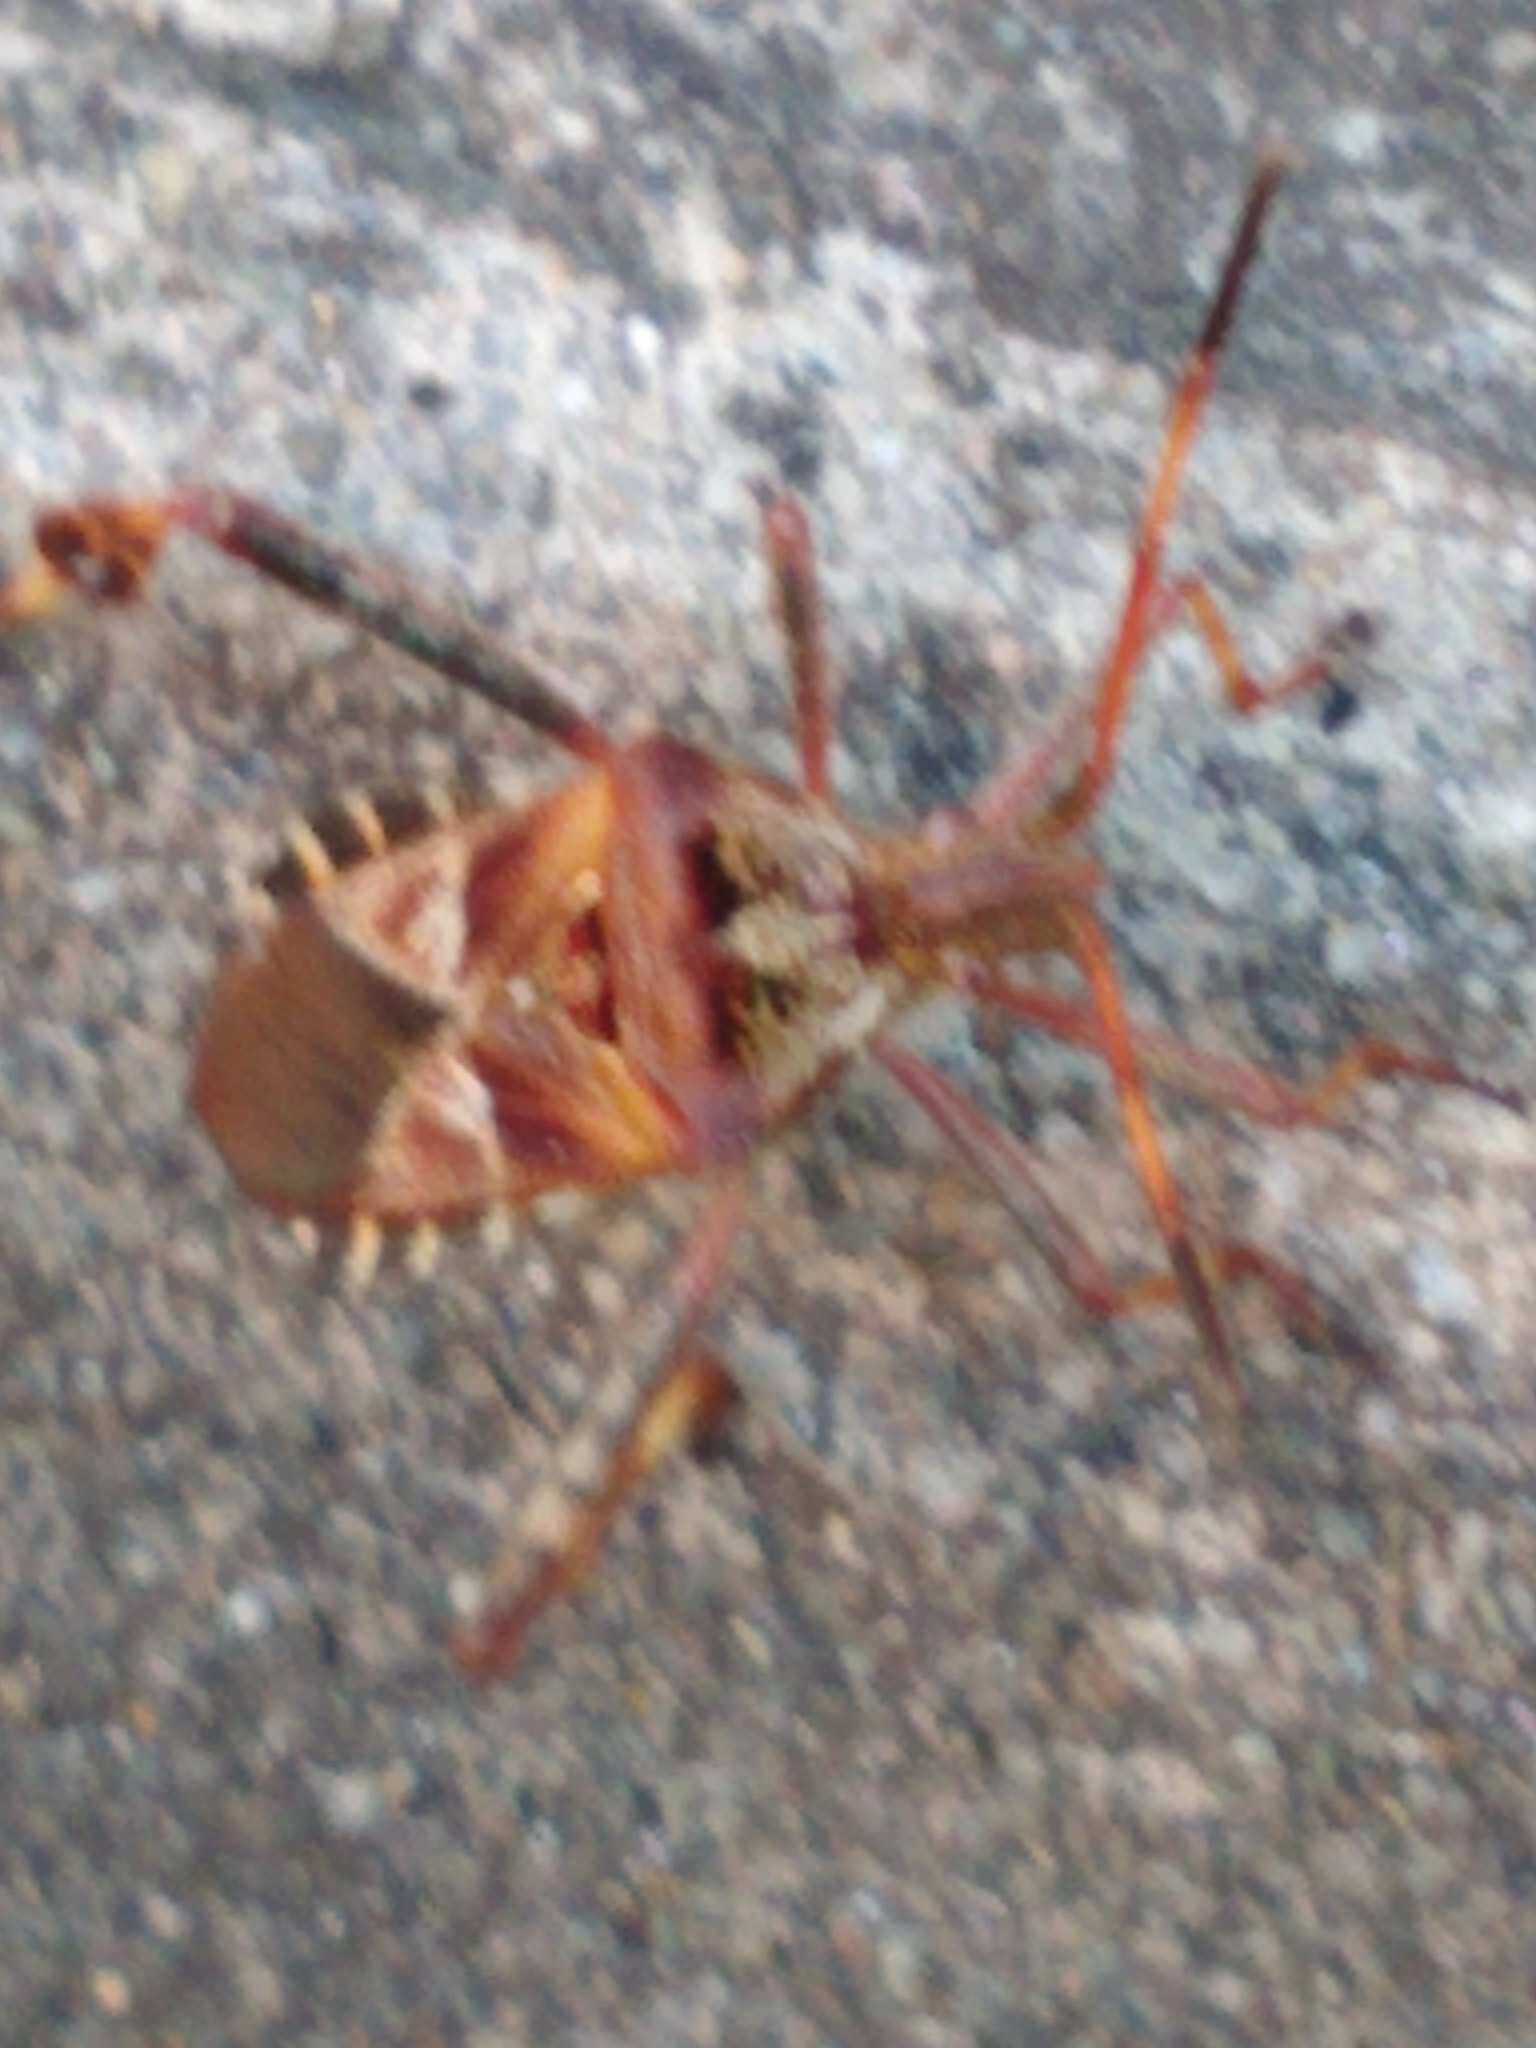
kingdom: Animalia
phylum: Arthropoda
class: Insecta
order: Hemiptera
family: Coreidae
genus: Leptoglossus
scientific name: Leptoglossus occidentalis
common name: Western conifer-seed bug
